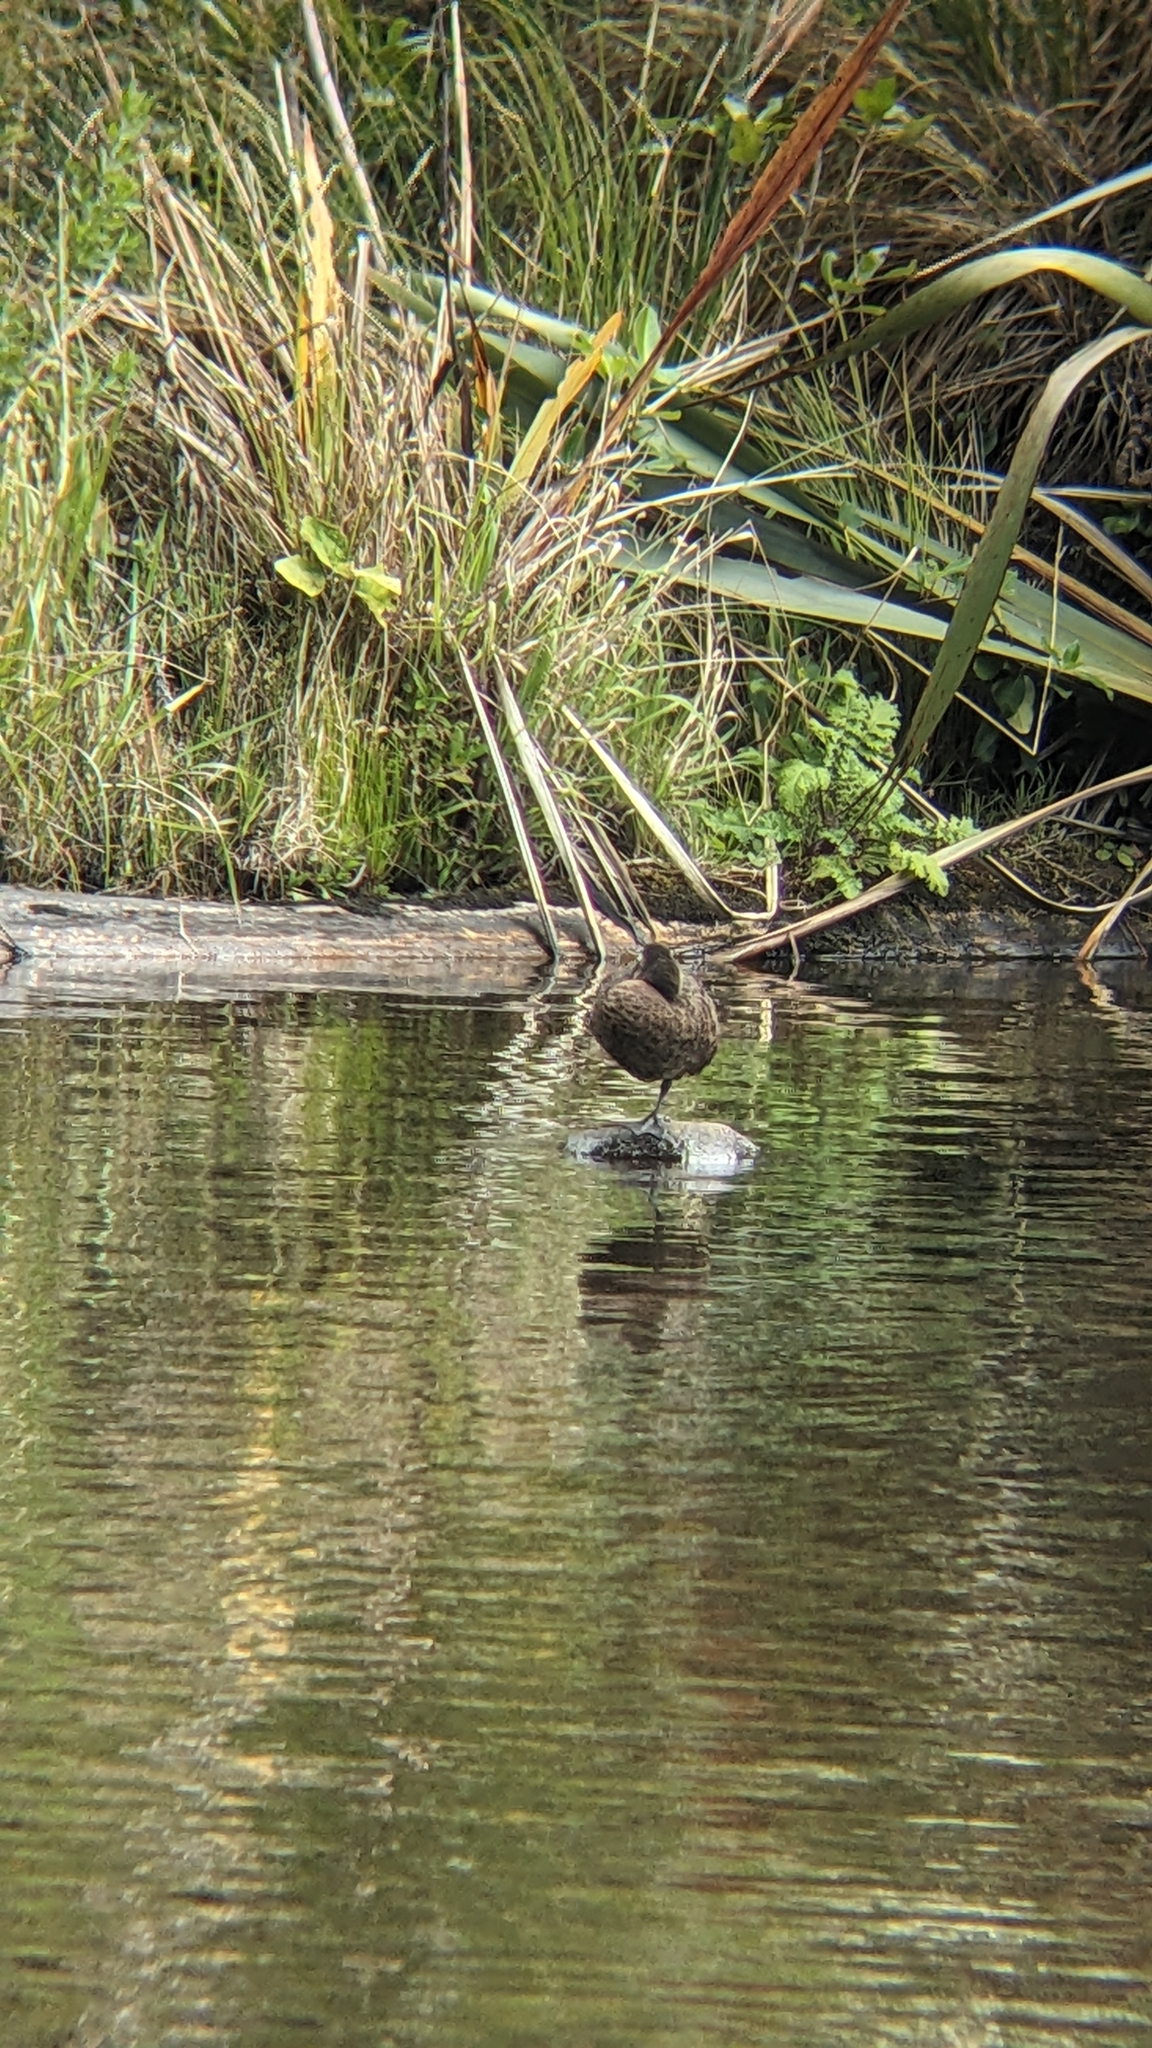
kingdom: Animalia
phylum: Chordata
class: Aves
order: Anseriformes
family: Anatidae
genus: Anas
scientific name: Anas chlorotis
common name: Brown teal
